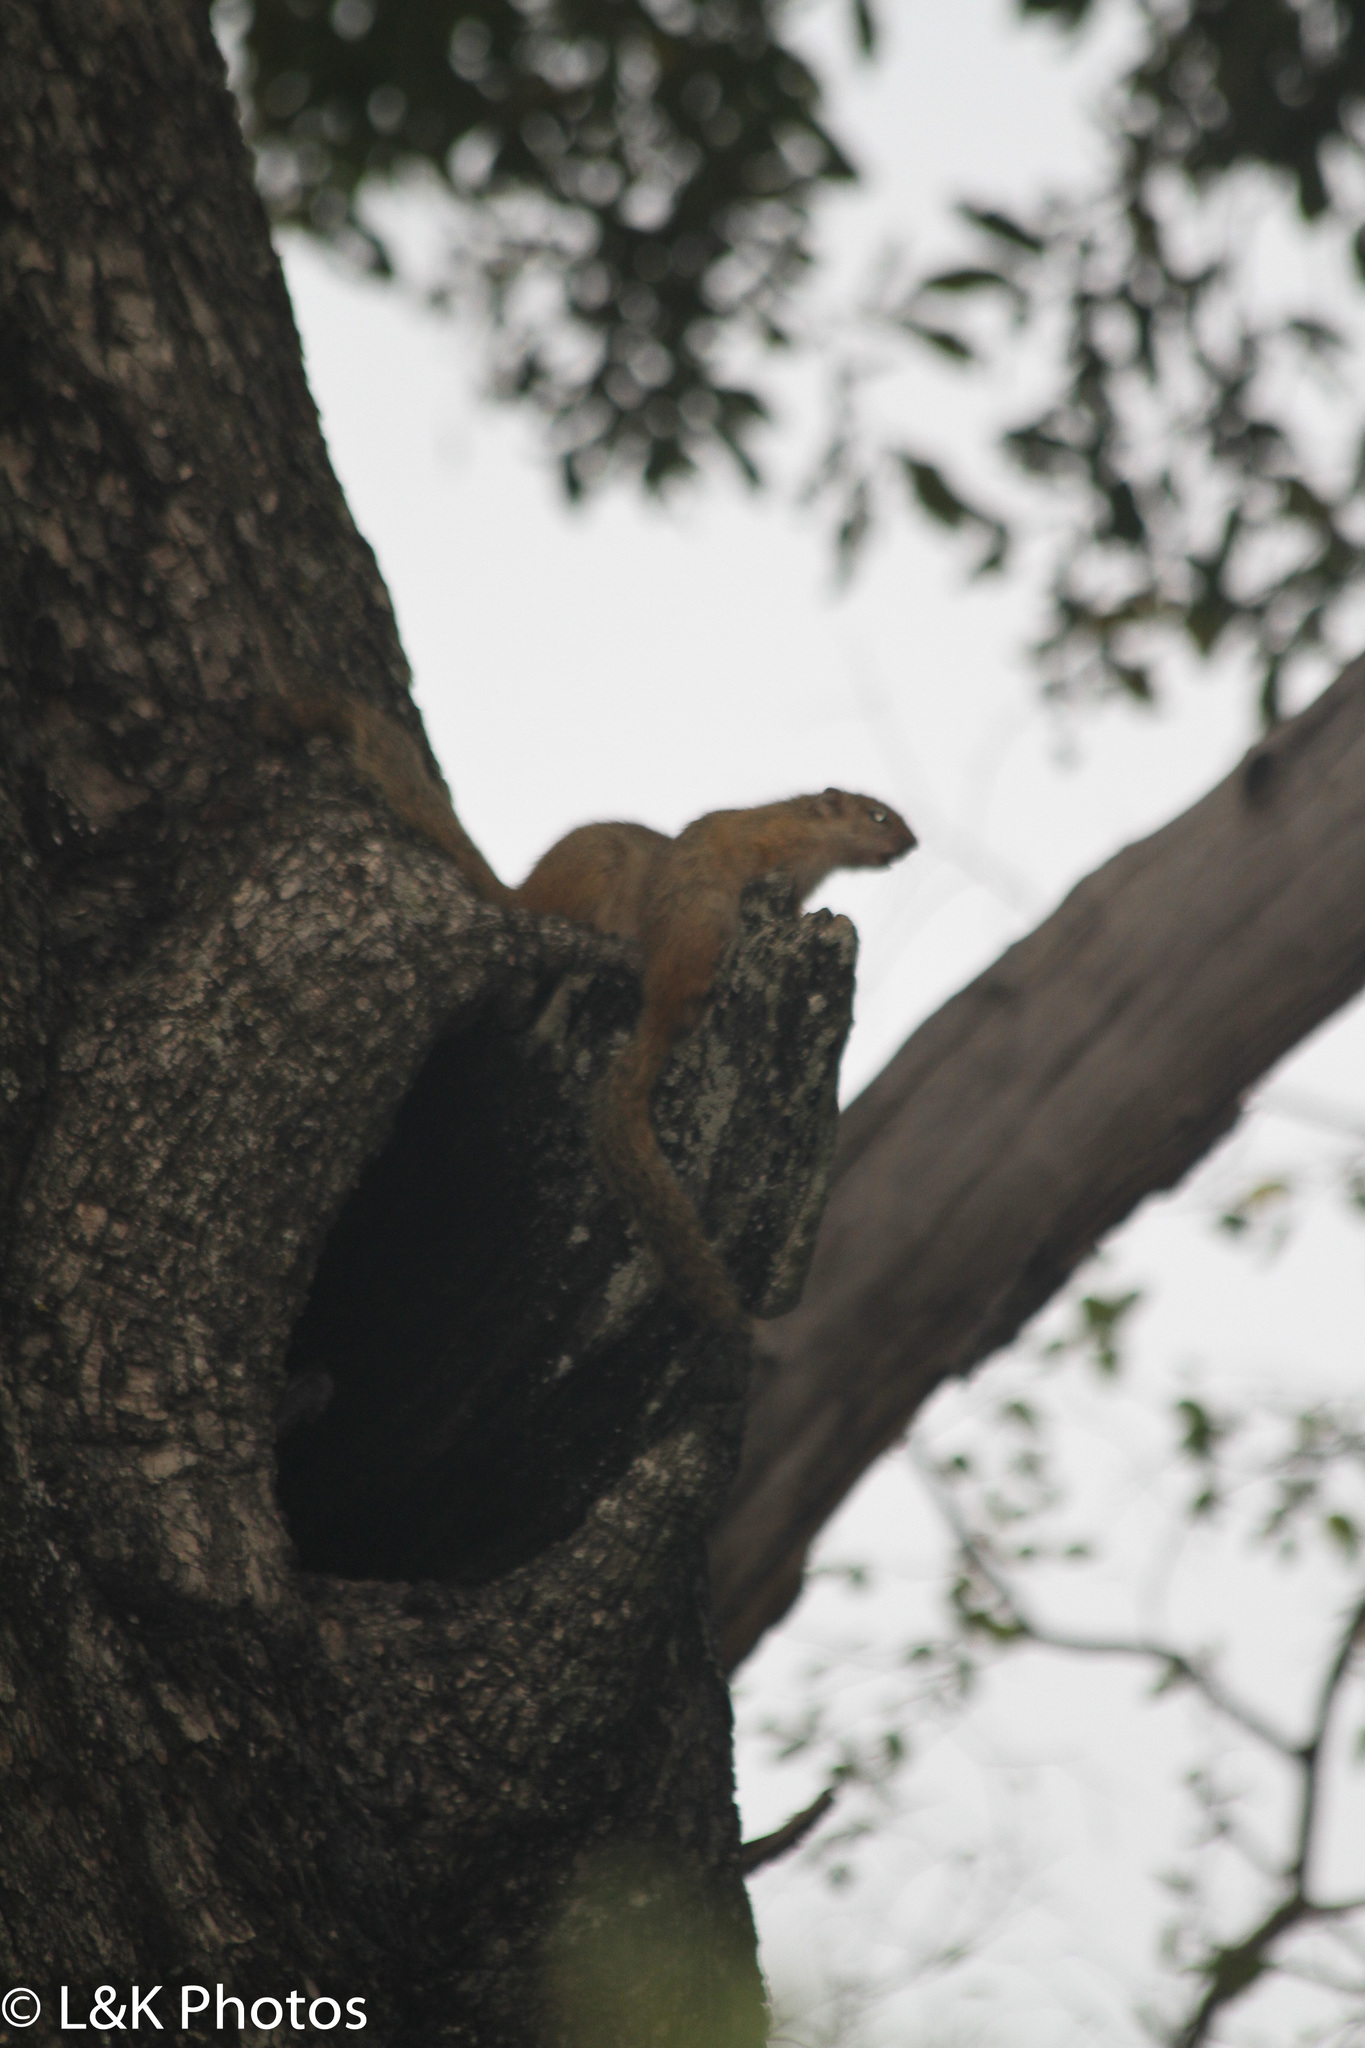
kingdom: Animalia
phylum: Chordata
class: Mammalia
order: Rodentia
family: Sciuridae
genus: Paraxerus
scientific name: Paraxerus cepapi
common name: Smith's bush squirrel
